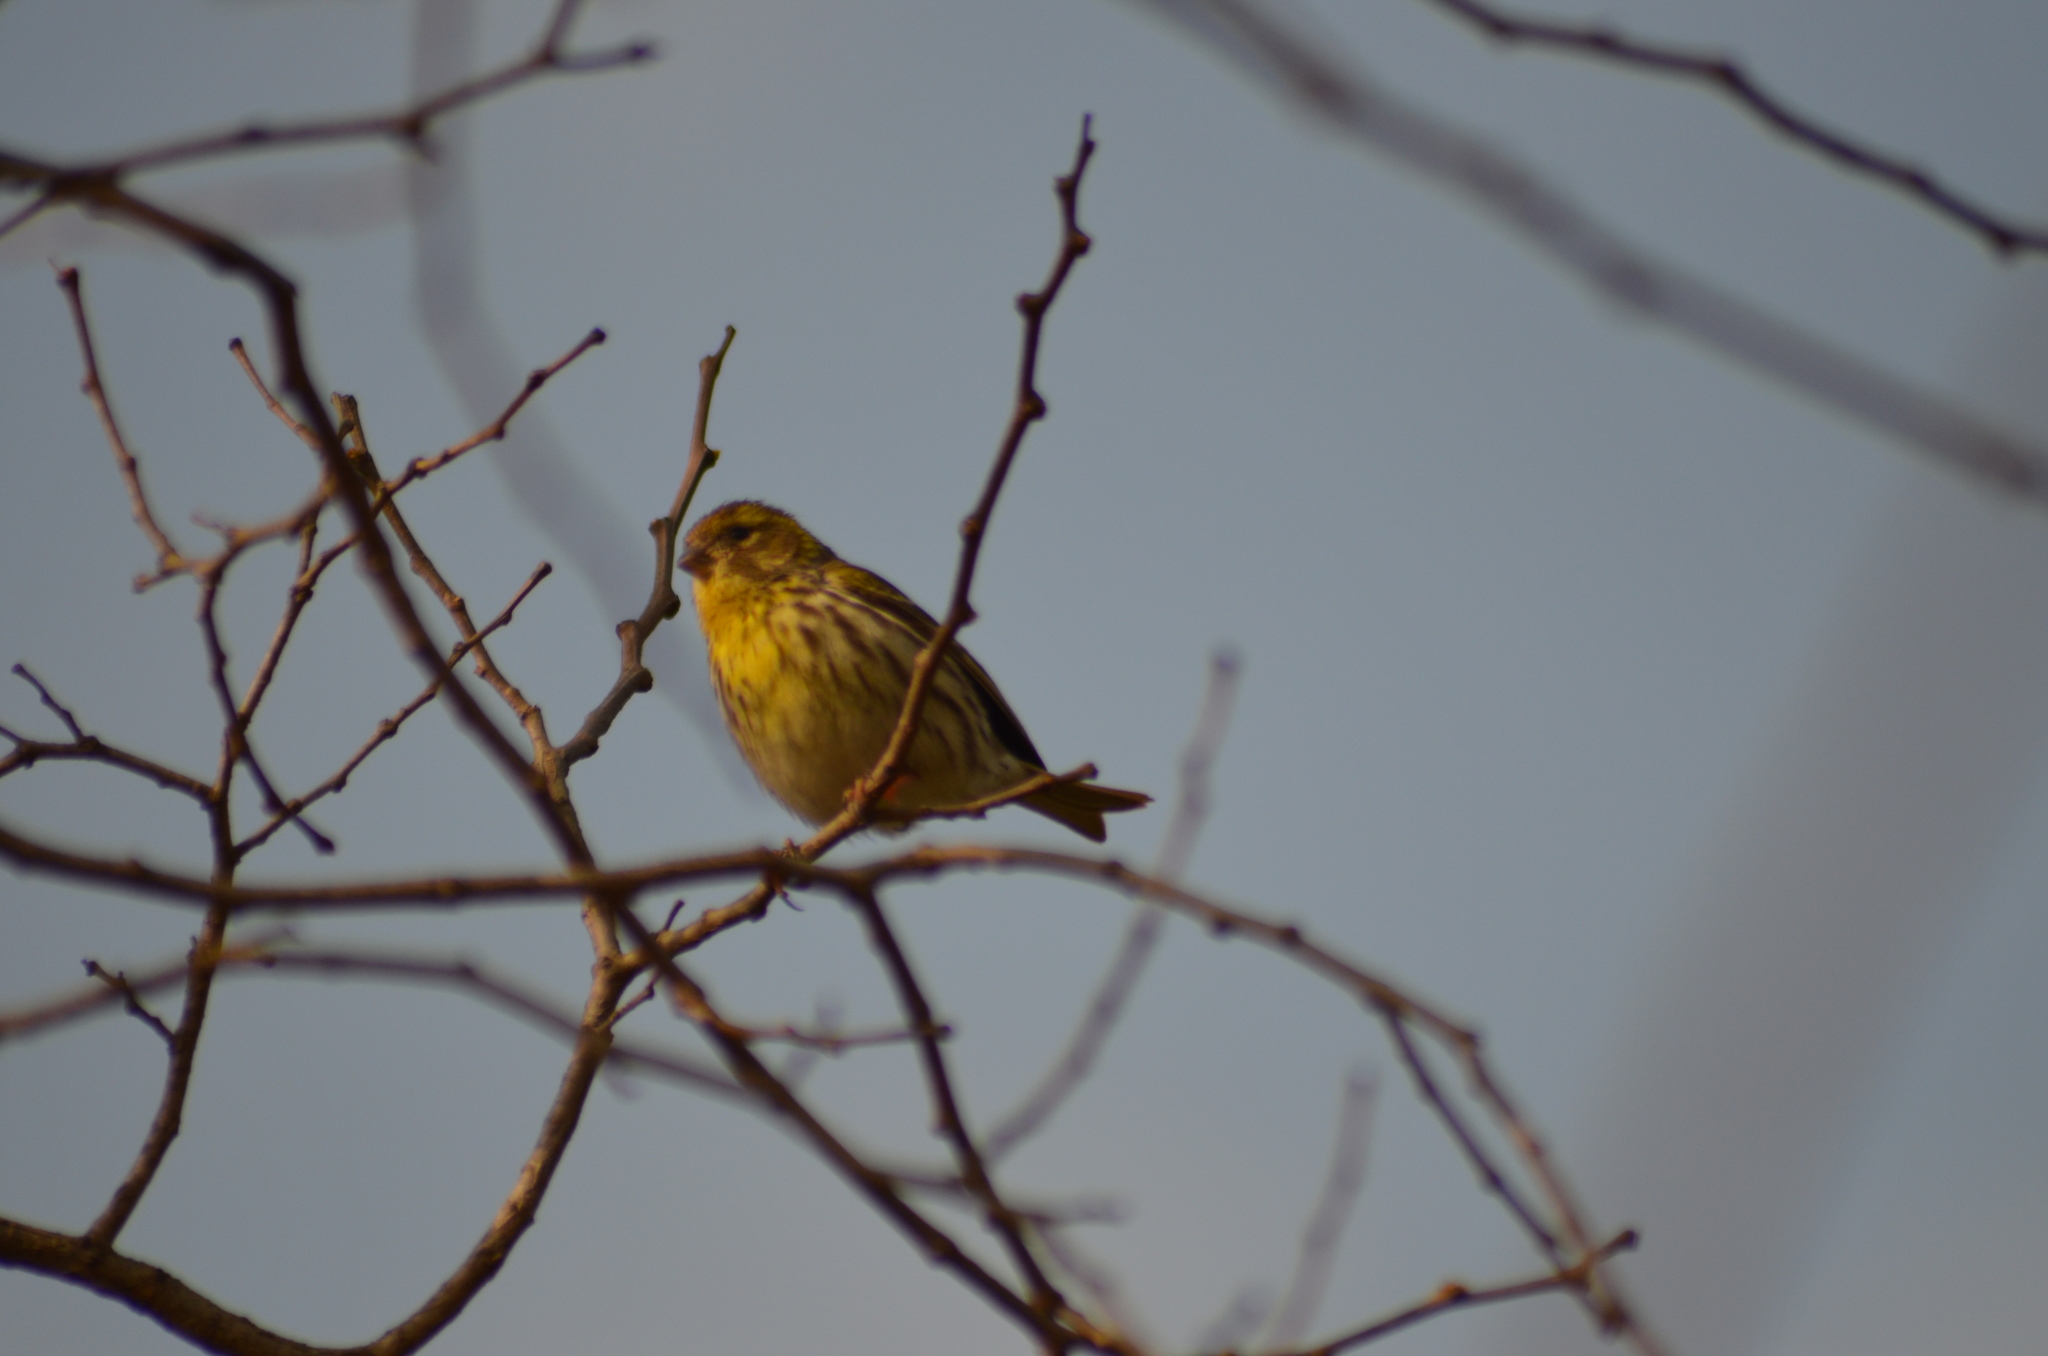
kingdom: Animalia
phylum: Chordata
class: Aves
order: Passeriformes
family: Fringillidae
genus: Serinus
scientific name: Serinus serinus
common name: European serin
